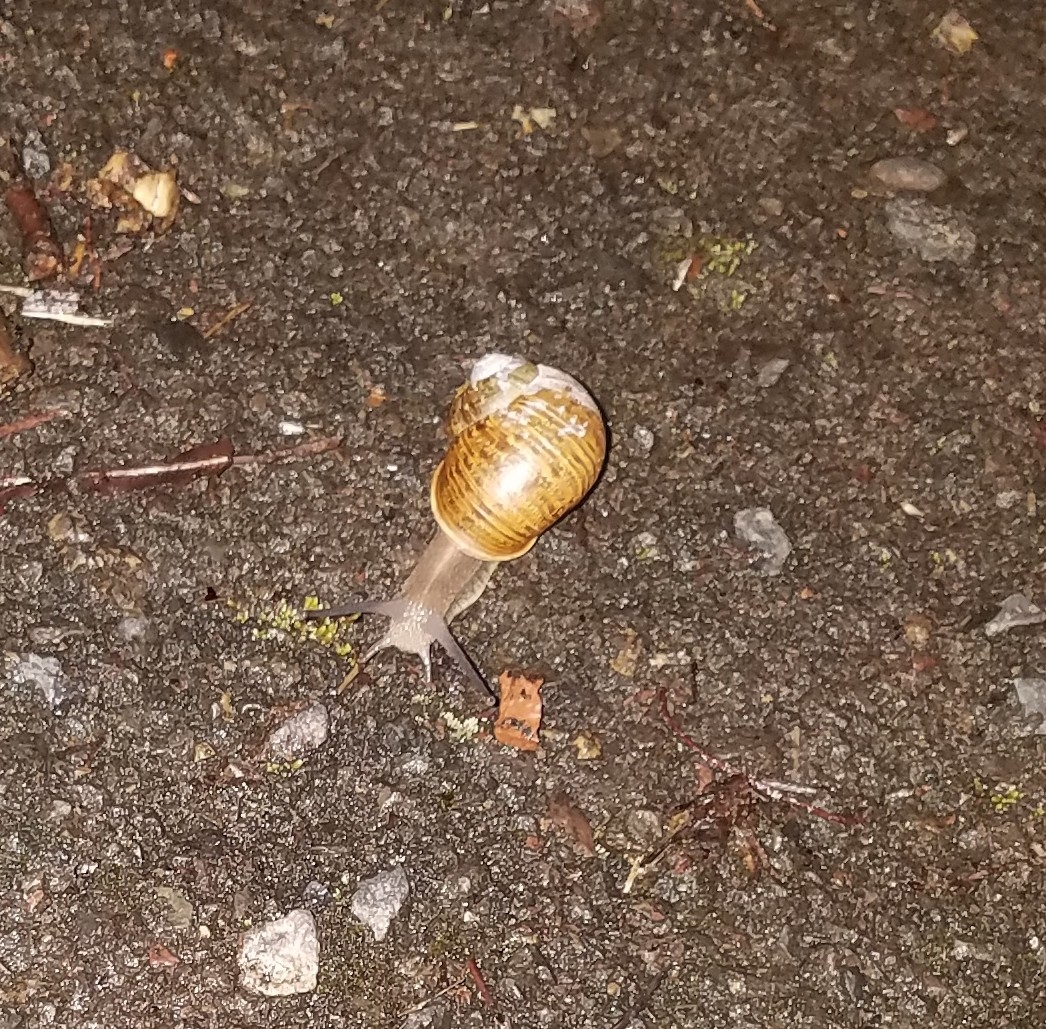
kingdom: Animalia
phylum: Mollusca
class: Gastropoda
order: Stylommatophora
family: Helicidae
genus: Cornu
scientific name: Cornu aspersum
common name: Brown garden snail
